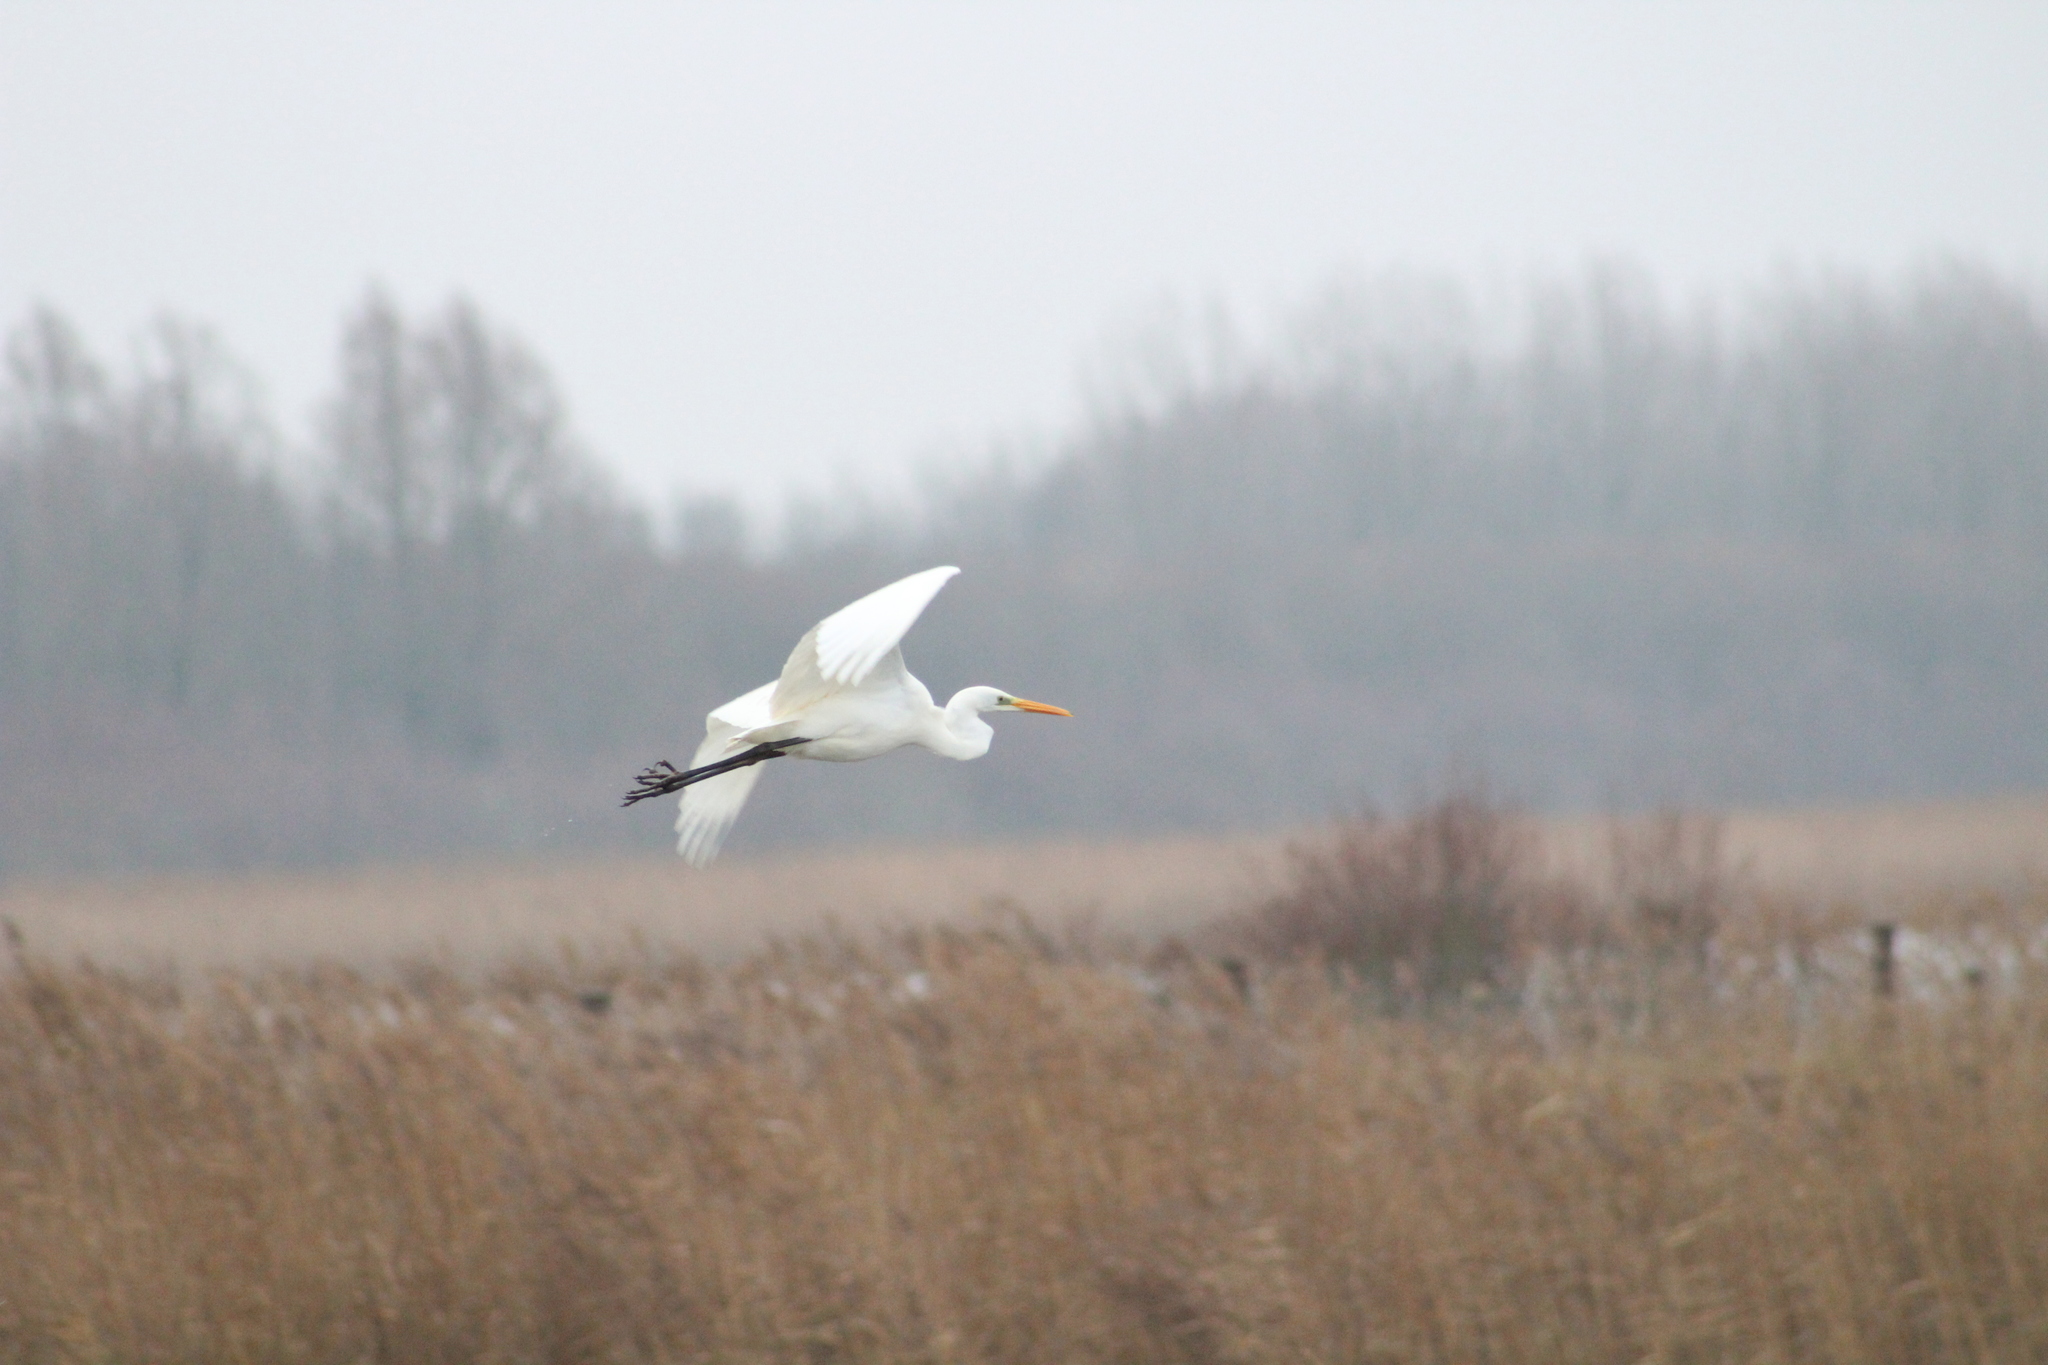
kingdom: Animalia
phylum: Chordata
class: Aves
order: Pelecaniformes
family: Ardeidae
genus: Ardea
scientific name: Ardea alba
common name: Great egret
